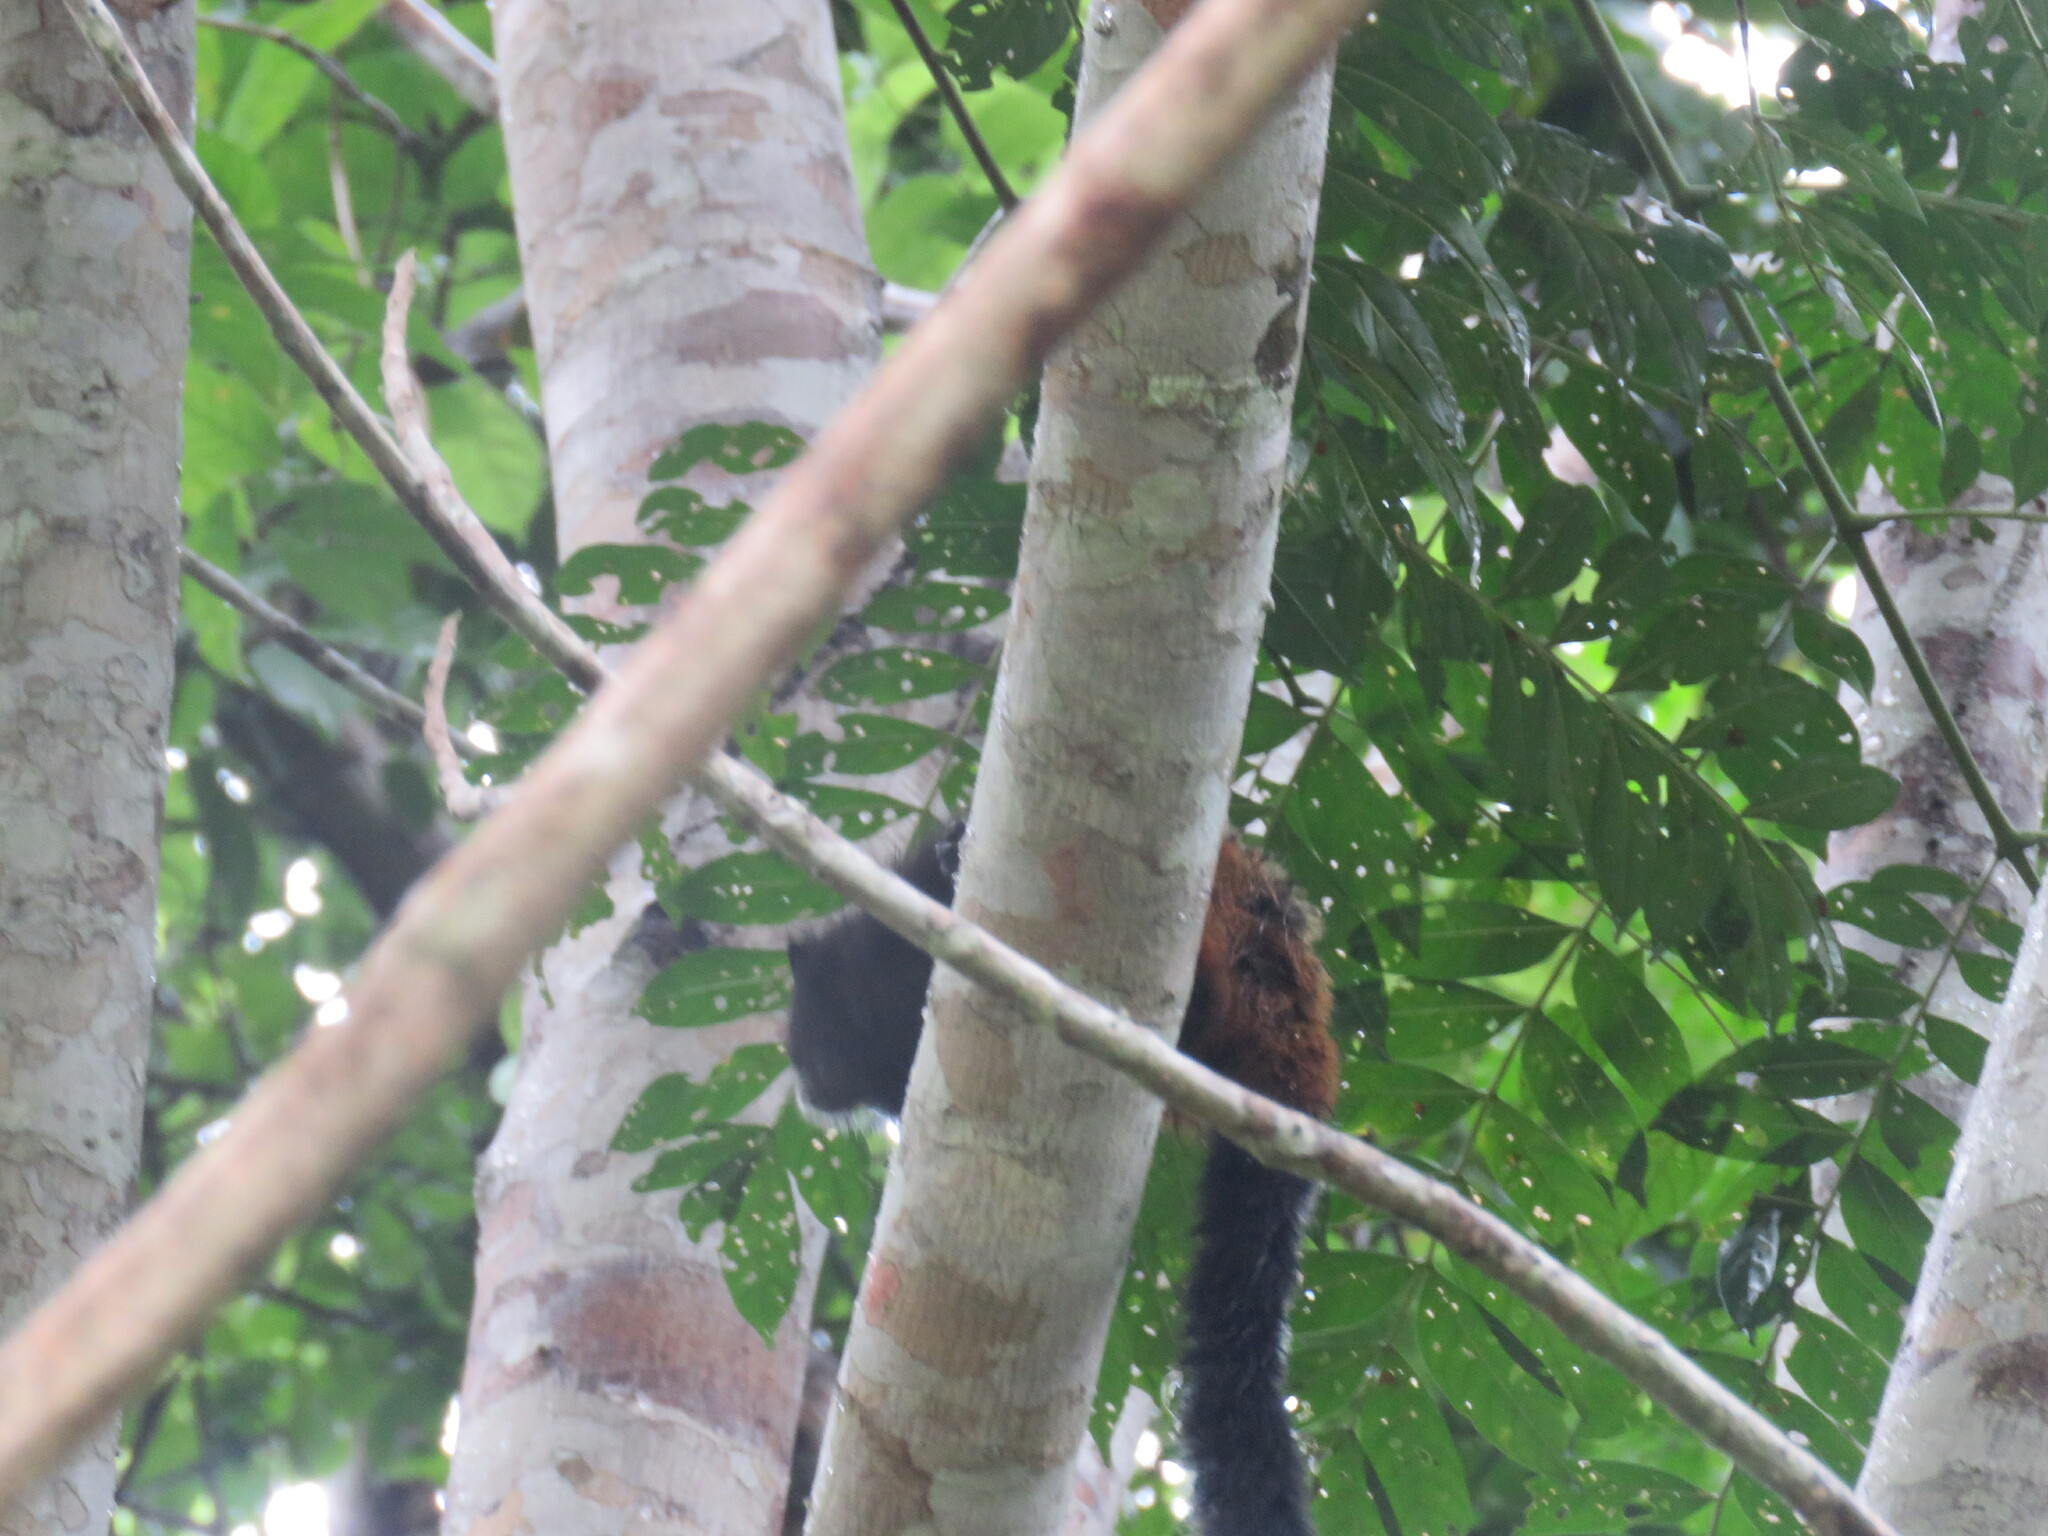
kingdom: Animalia
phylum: Chordata
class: Mammalia
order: Primates
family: Callitrichidae
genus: Leontocebus
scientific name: Leontocebus weddelli
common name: Weddell's saddle-back tamarin
